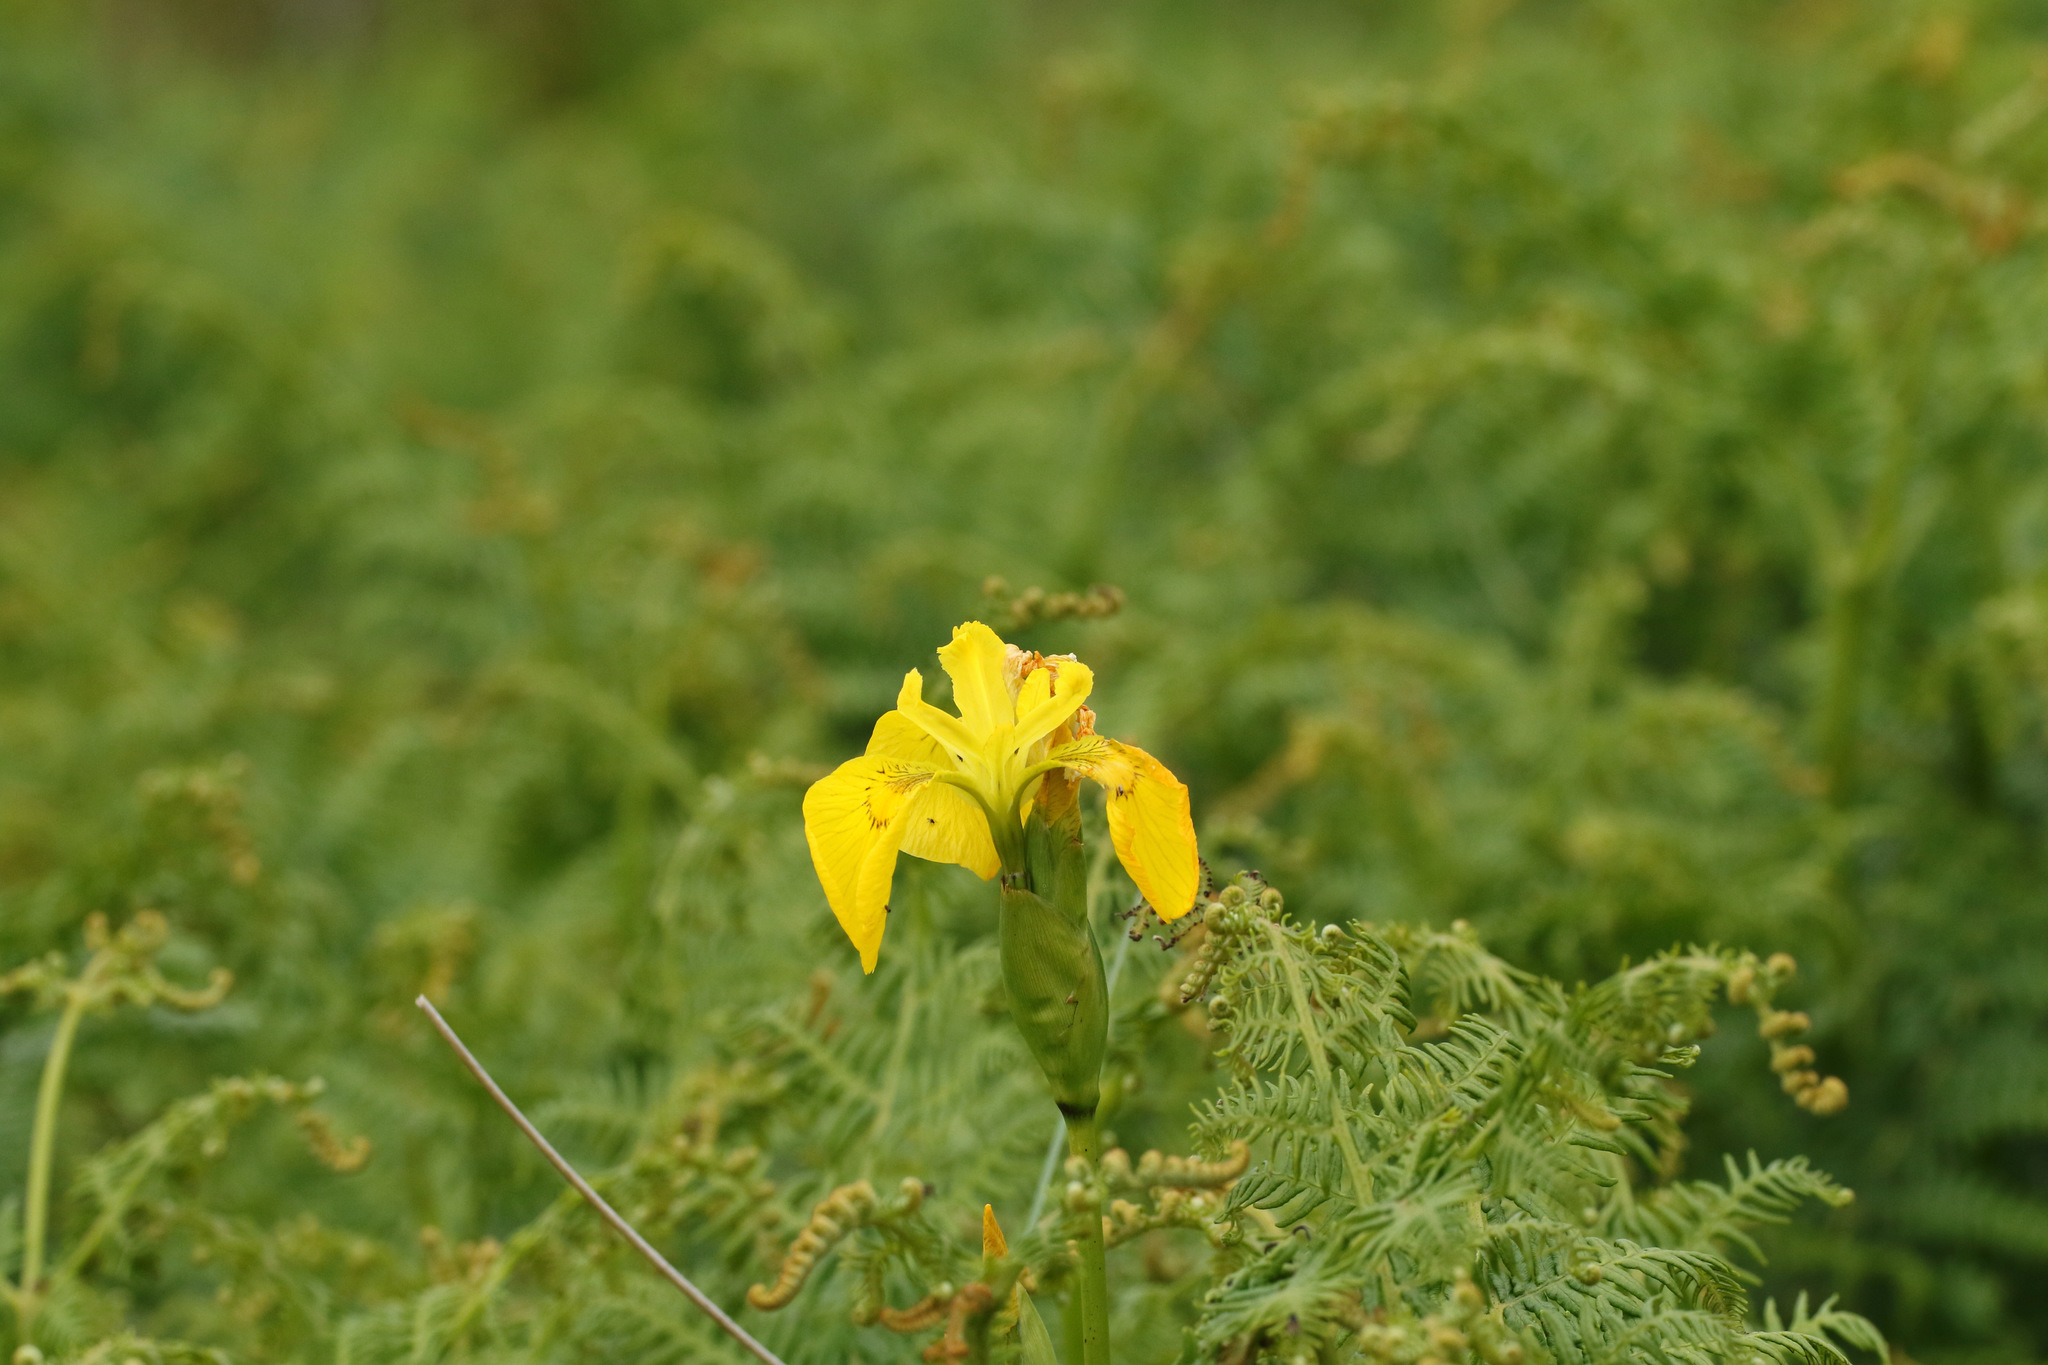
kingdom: Plantae
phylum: Tracheophyta
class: Liliopsida
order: Asparagales
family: Iridaceae
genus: Iris
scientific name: Iris pseudacorus
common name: Yellow flag
